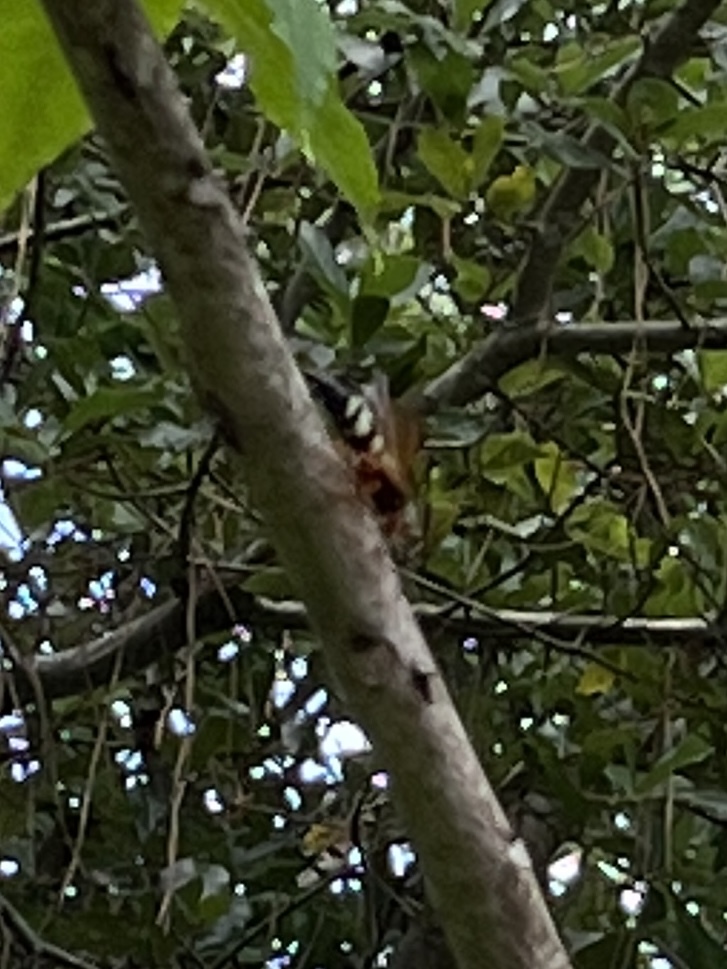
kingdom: Animalia
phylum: Arthropoda
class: Insecta
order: Hymenoptera
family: Crabronidae
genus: Sphecius
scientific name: Sphecius speciosus
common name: Cicada killer
